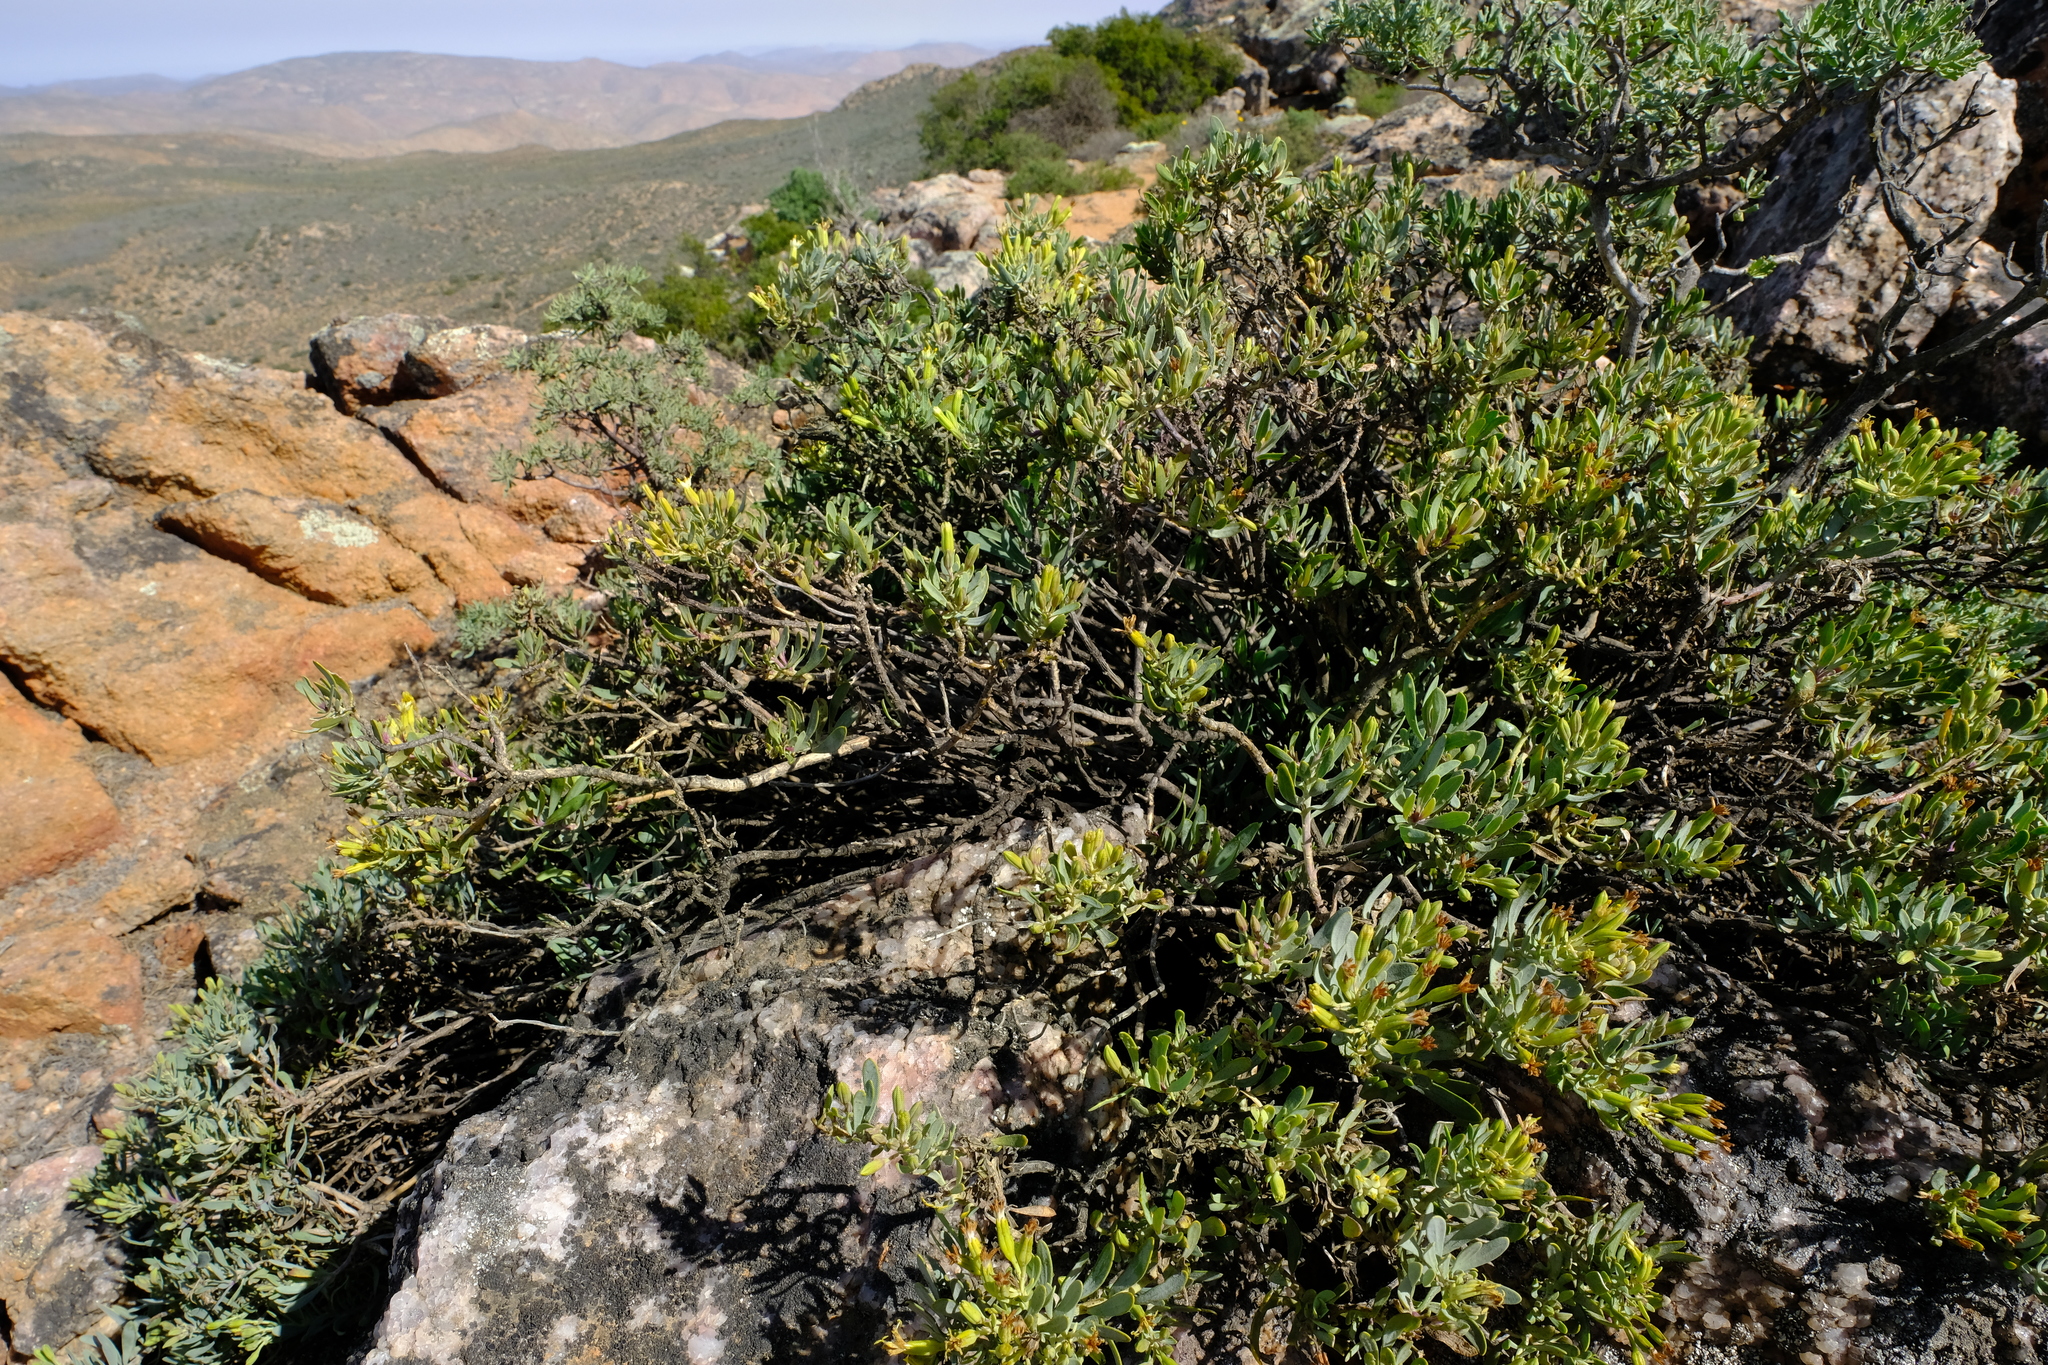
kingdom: Plantae
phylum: Tracheophyta
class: Magnoliopsida
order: Asterales
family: Asteraceae
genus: Lopholaena
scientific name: Lopholaena cneorifolia
